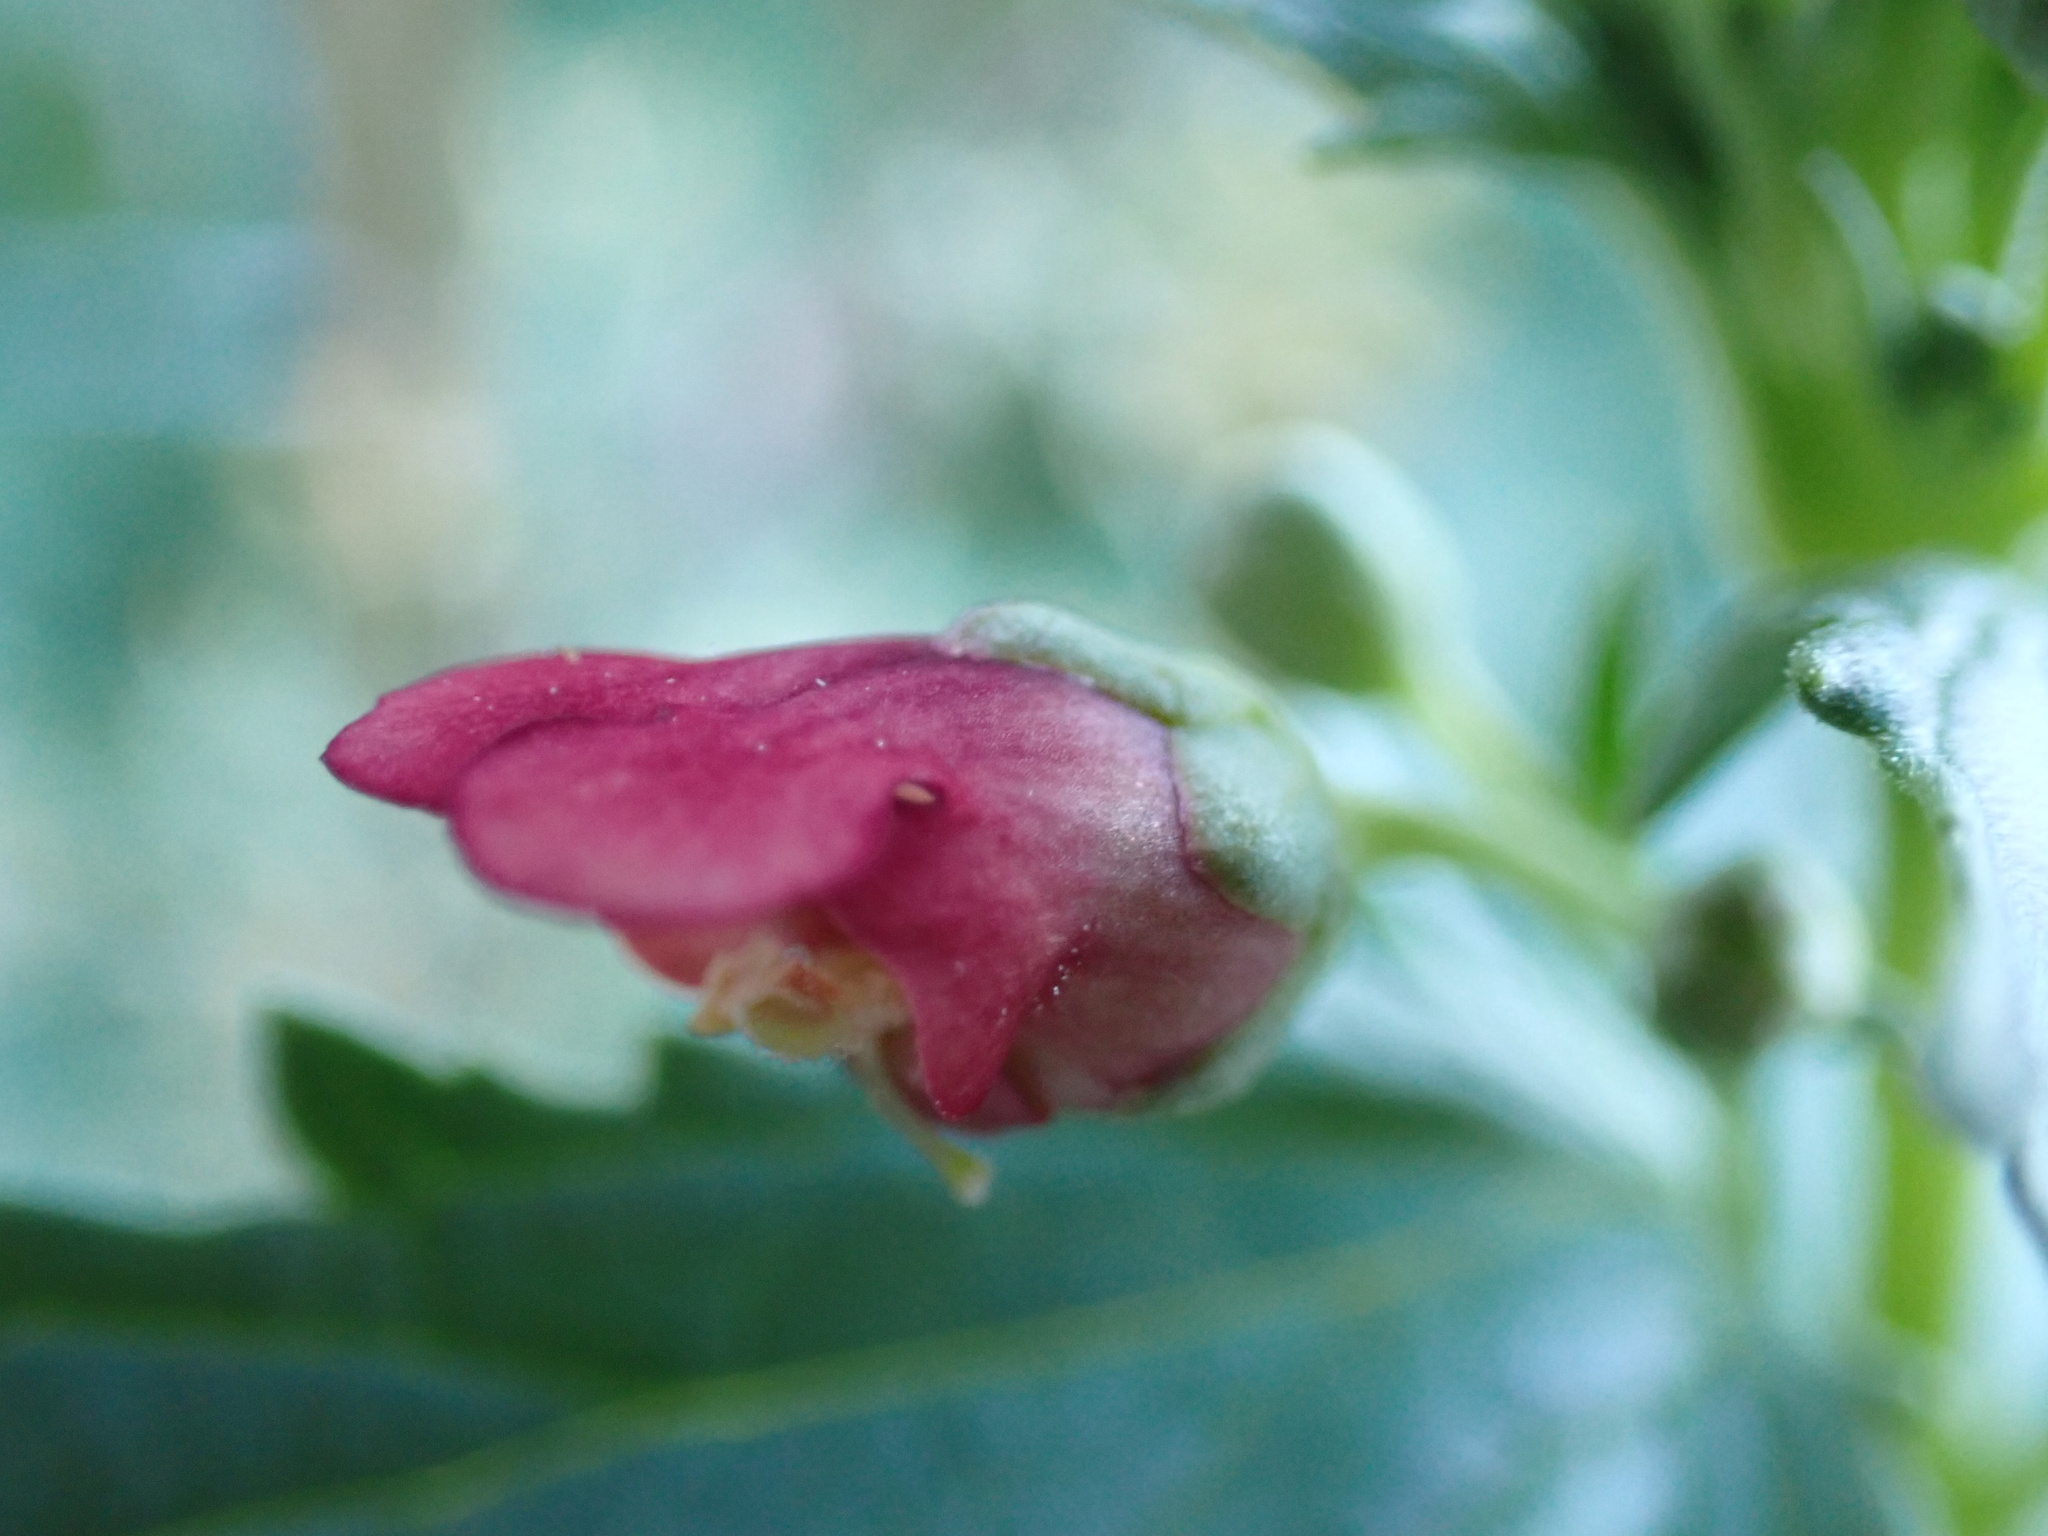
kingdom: Plantae
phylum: Tracheophyta
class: Magnoliopsida
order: Lamiales
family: Scrophulariaceae
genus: Scrophularia
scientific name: Scrophularia californica
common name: California figwort
